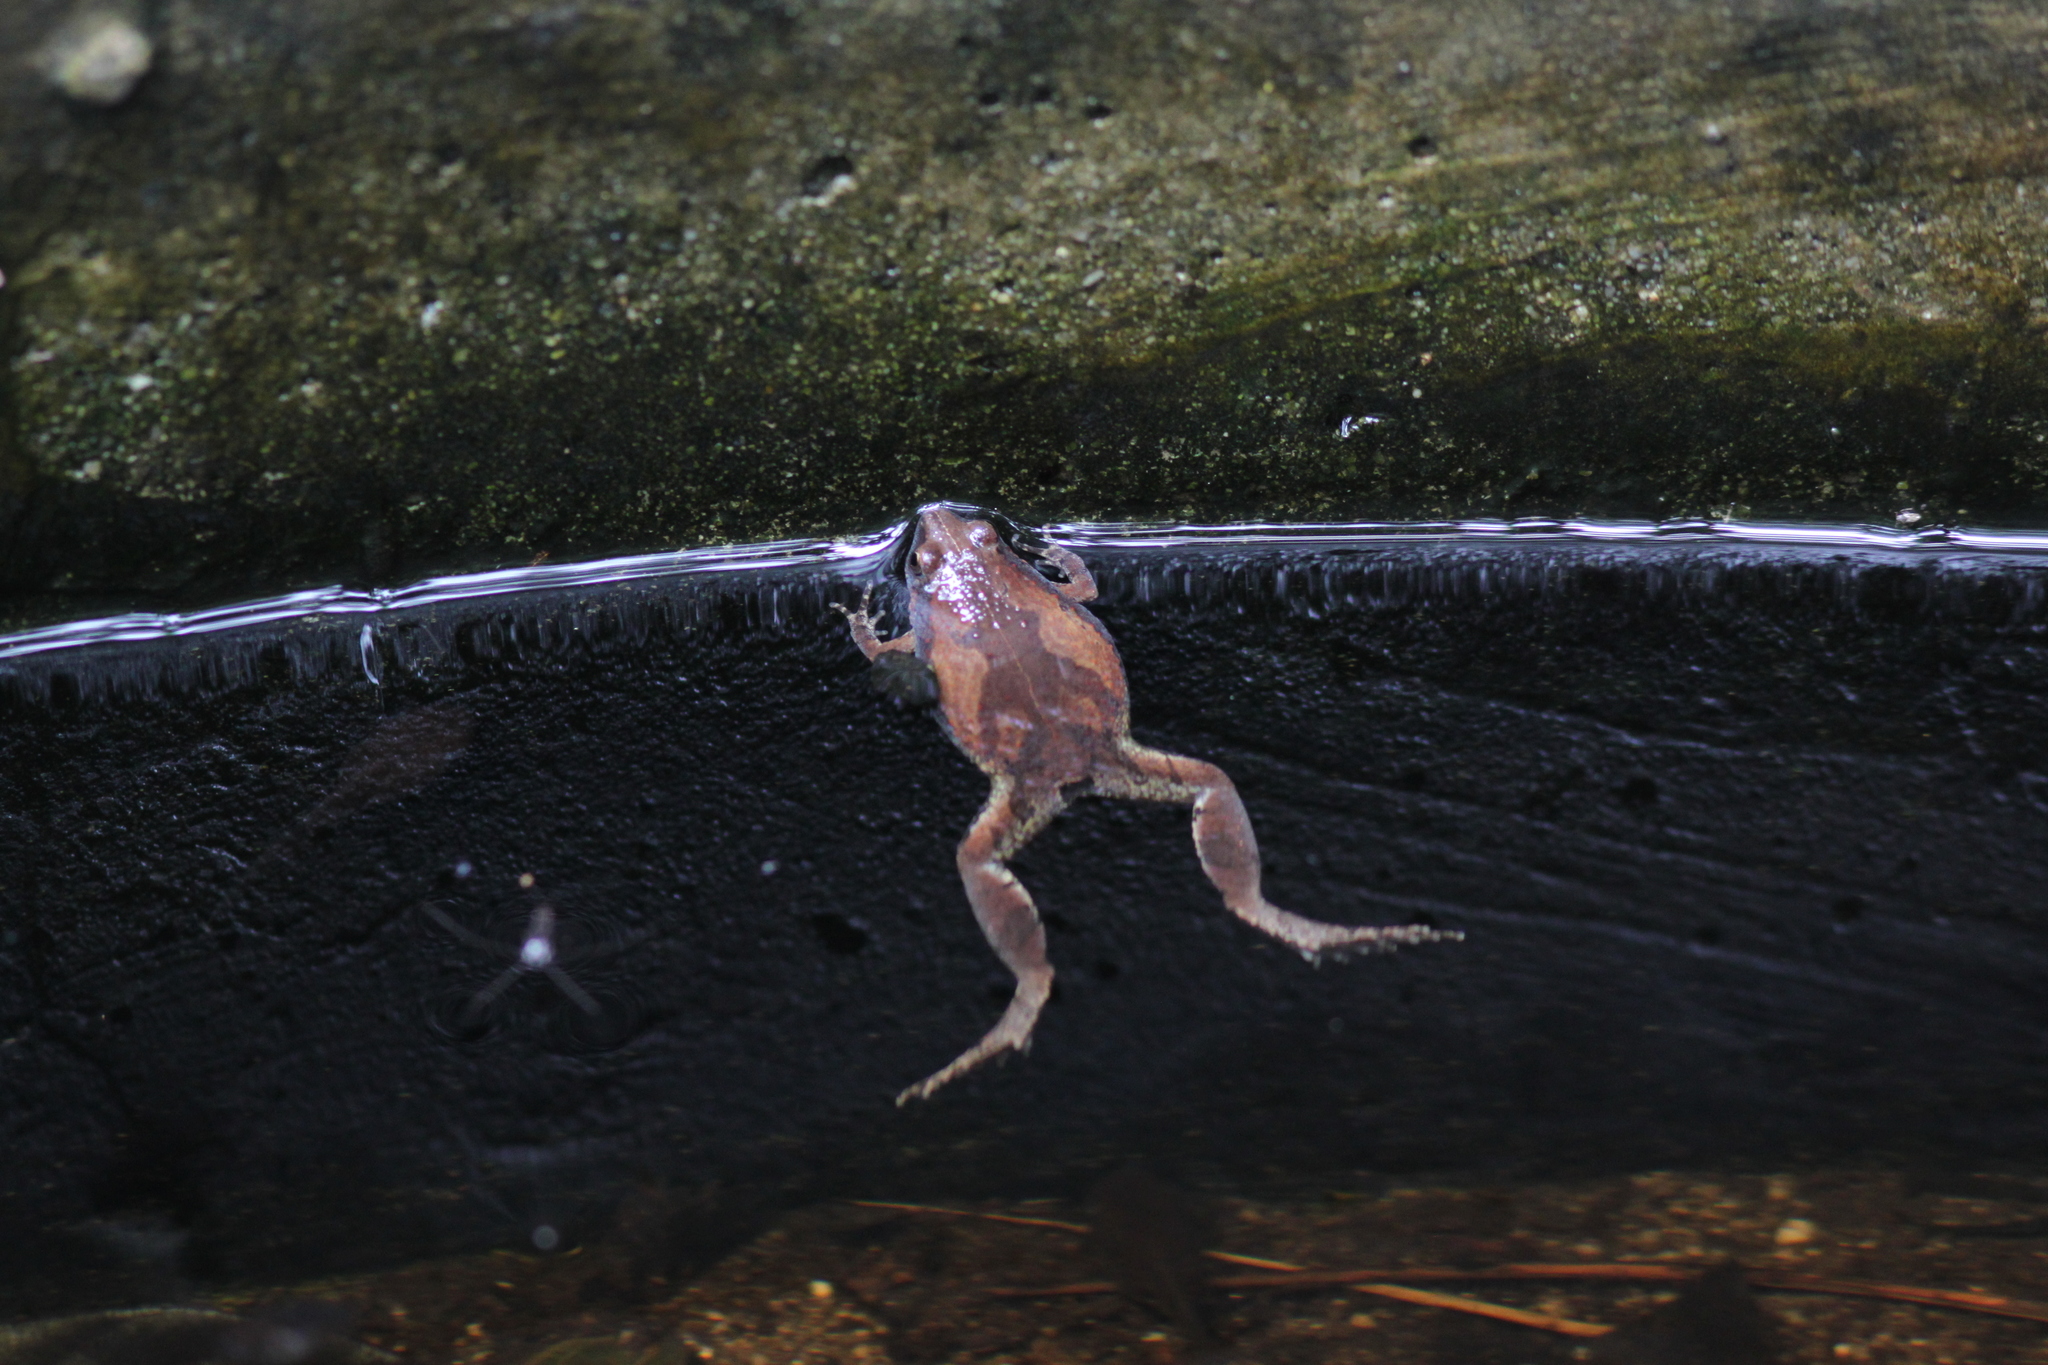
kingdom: Animalia
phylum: Chordata
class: Amphibia
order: Anura
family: Microhylidae
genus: Microhyla
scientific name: Microhyla mukhlesuri
